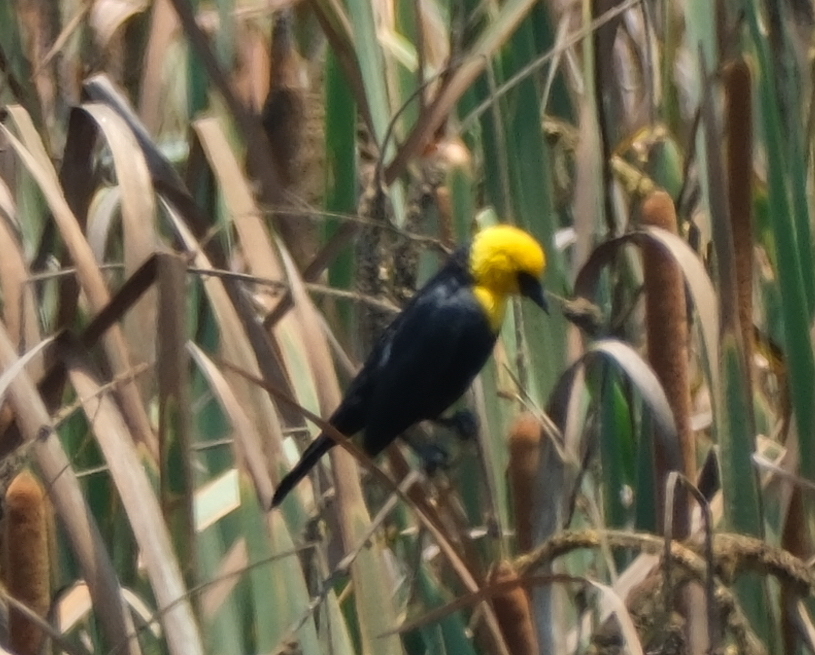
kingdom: Animalia
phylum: Chordata
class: Aves
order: Passeriformes
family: Icteridae
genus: Chrysomus
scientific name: Chrysomus icterocephalus
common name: Yellow-hooded blackbird
